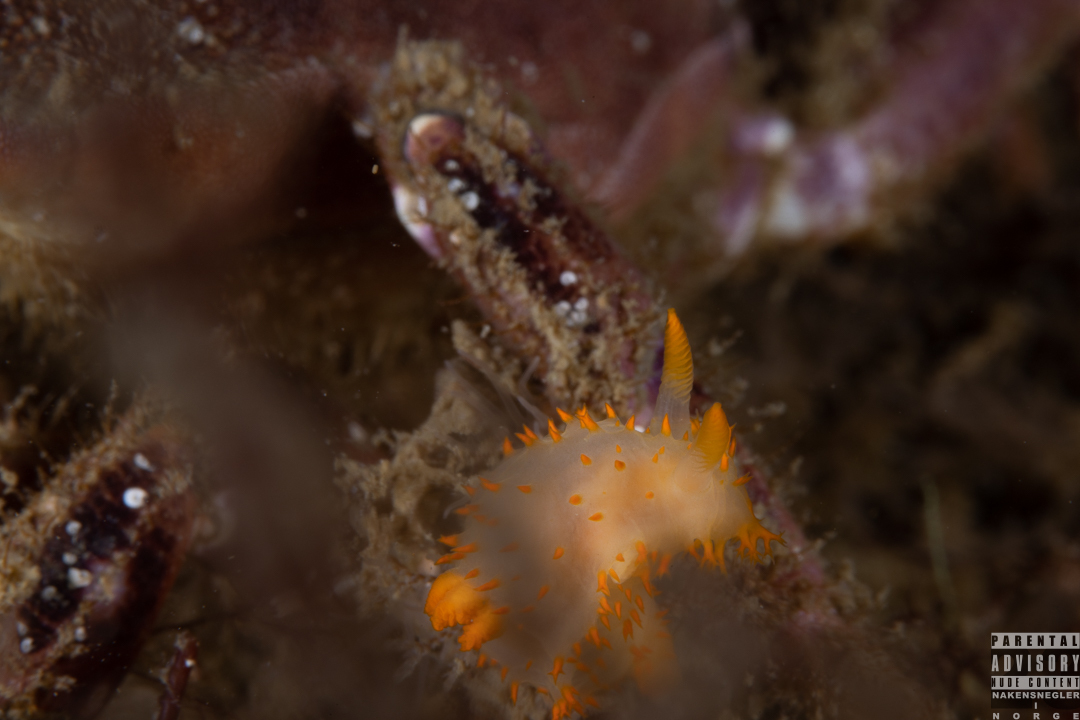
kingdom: Animalia
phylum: Mollusca
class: Gastropoda
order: Nudibranchia
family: Polyceridae
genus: Crimora
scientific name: Crimora papillata
